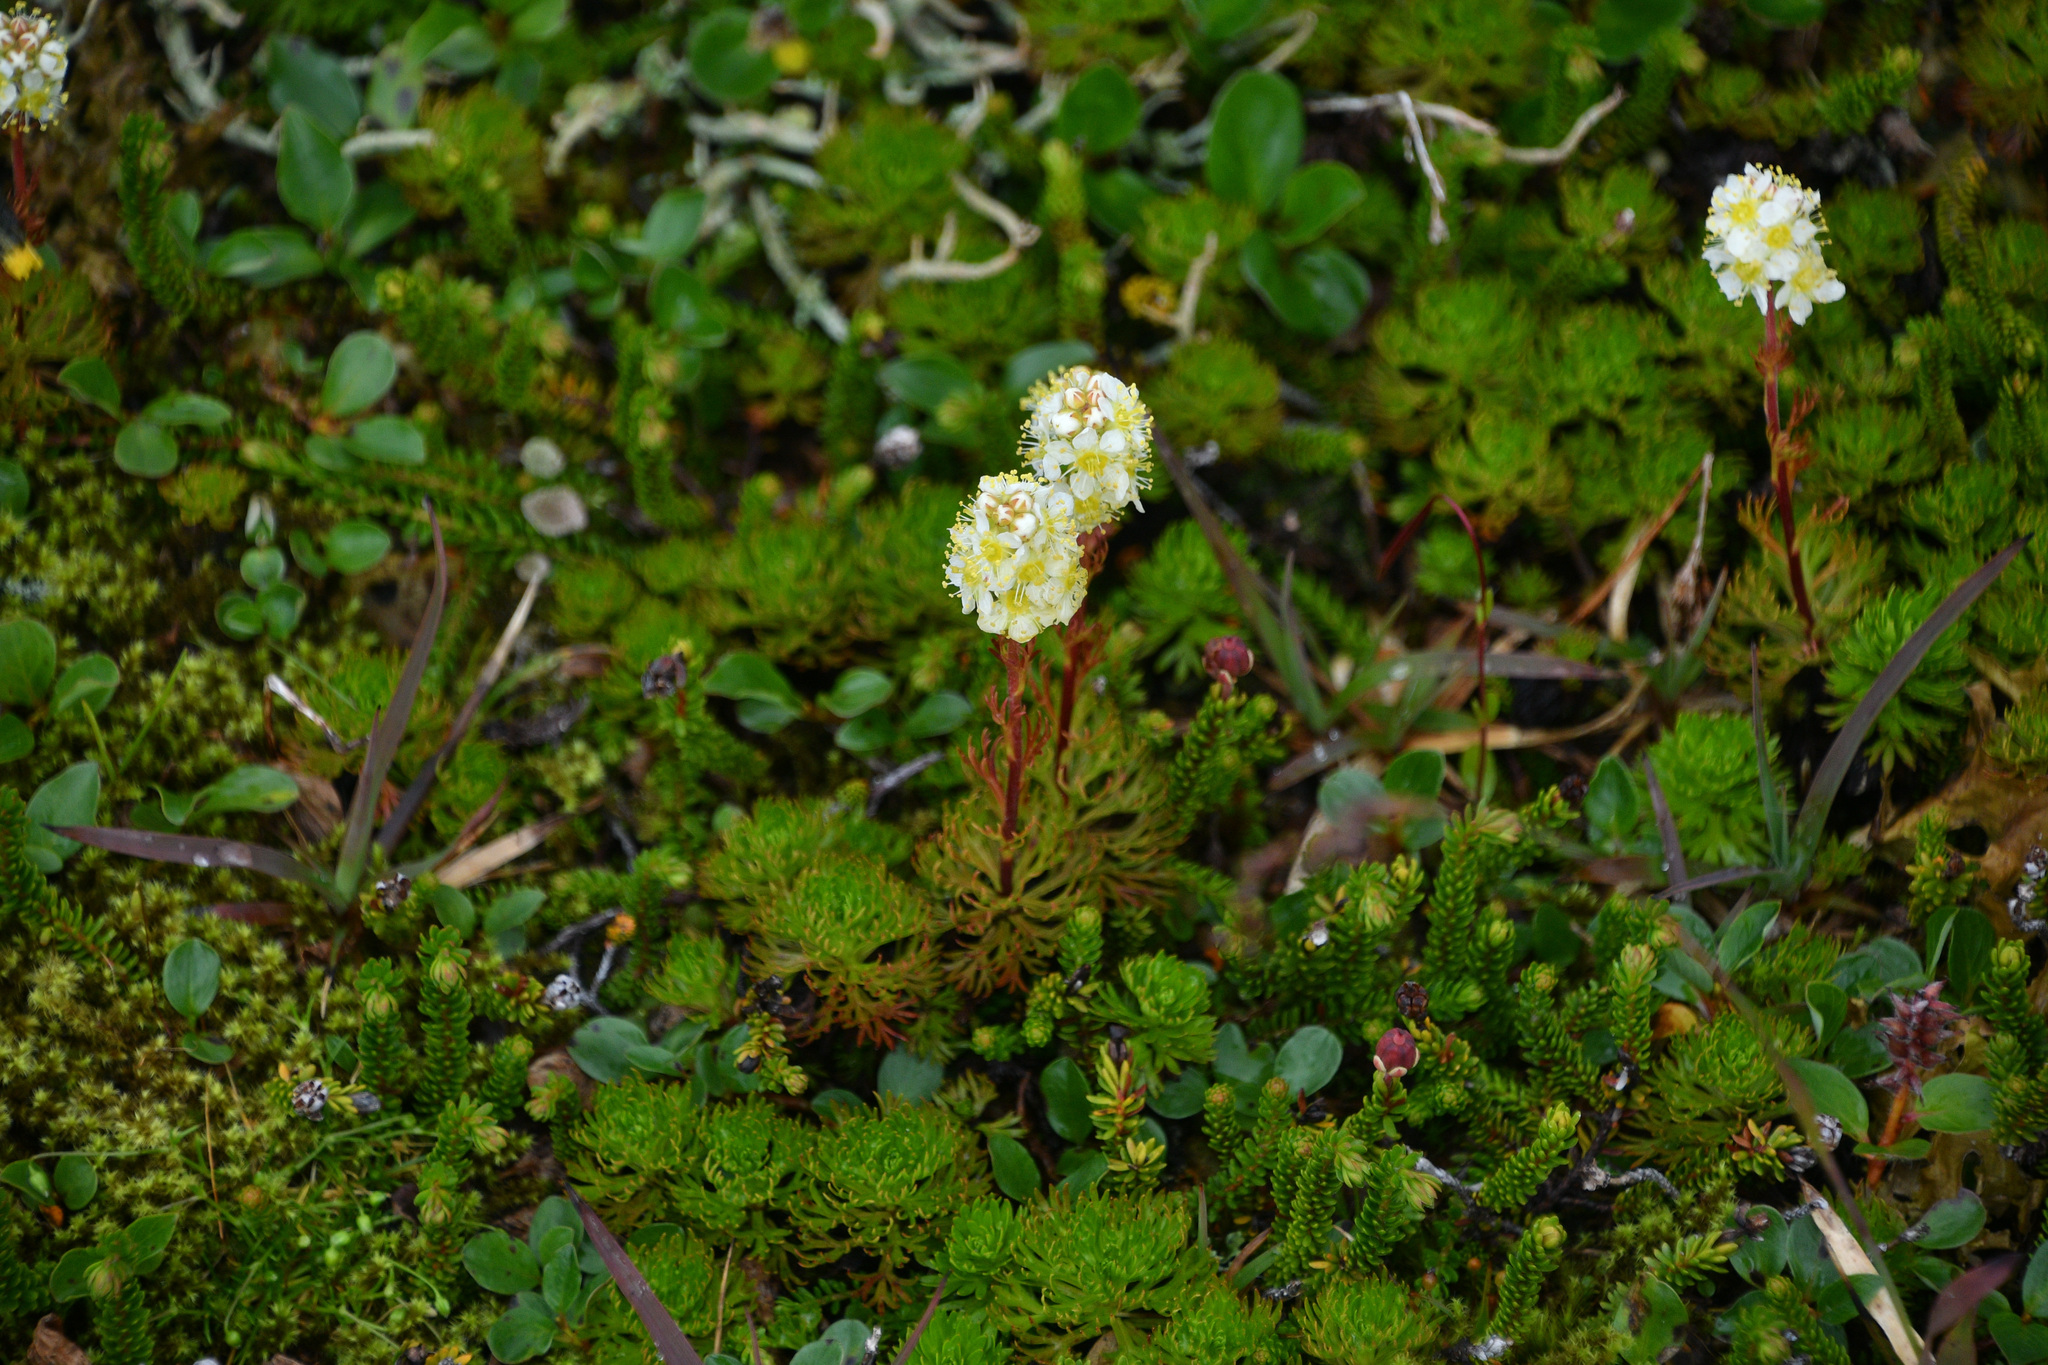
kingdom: Plantae
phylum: Tracheophyta
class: Magnoliopsida
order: Rosales
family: Rosaceae
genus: Luetkea
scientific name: Luetkea pectinata
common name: Partridgefoot
